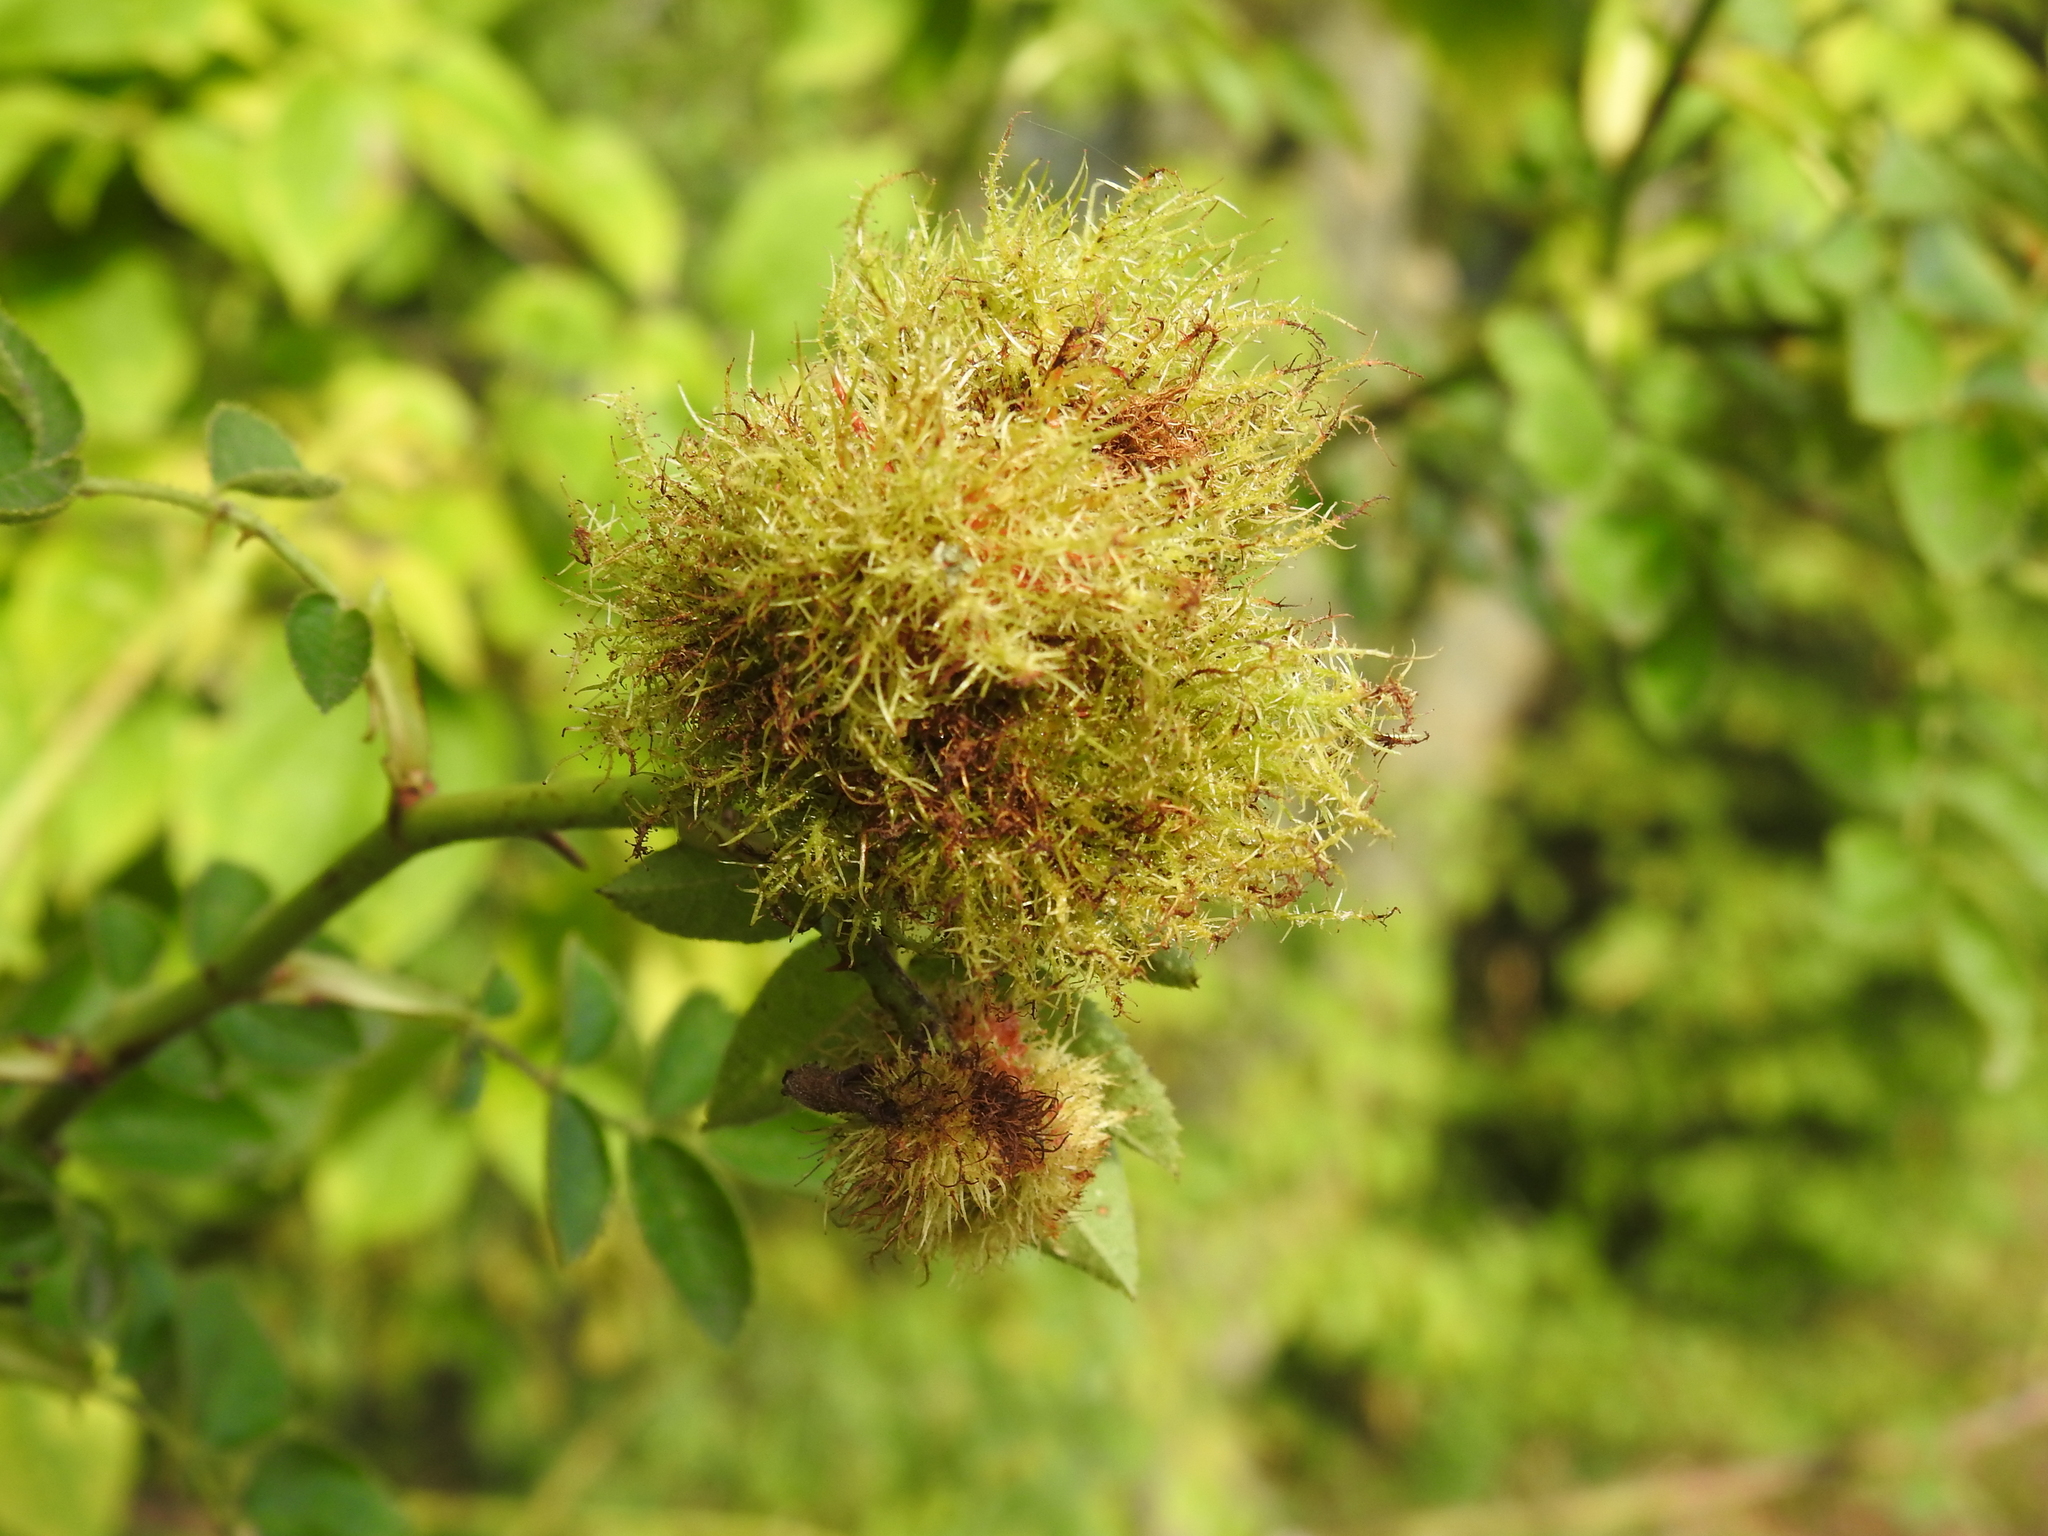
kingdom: Animalia
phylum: Arthropoda
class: Insecta
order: Hymenoptera
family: Cynipidae
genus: Diplolepis
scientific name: Diplolepis rosae
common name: Bedeguar gall
